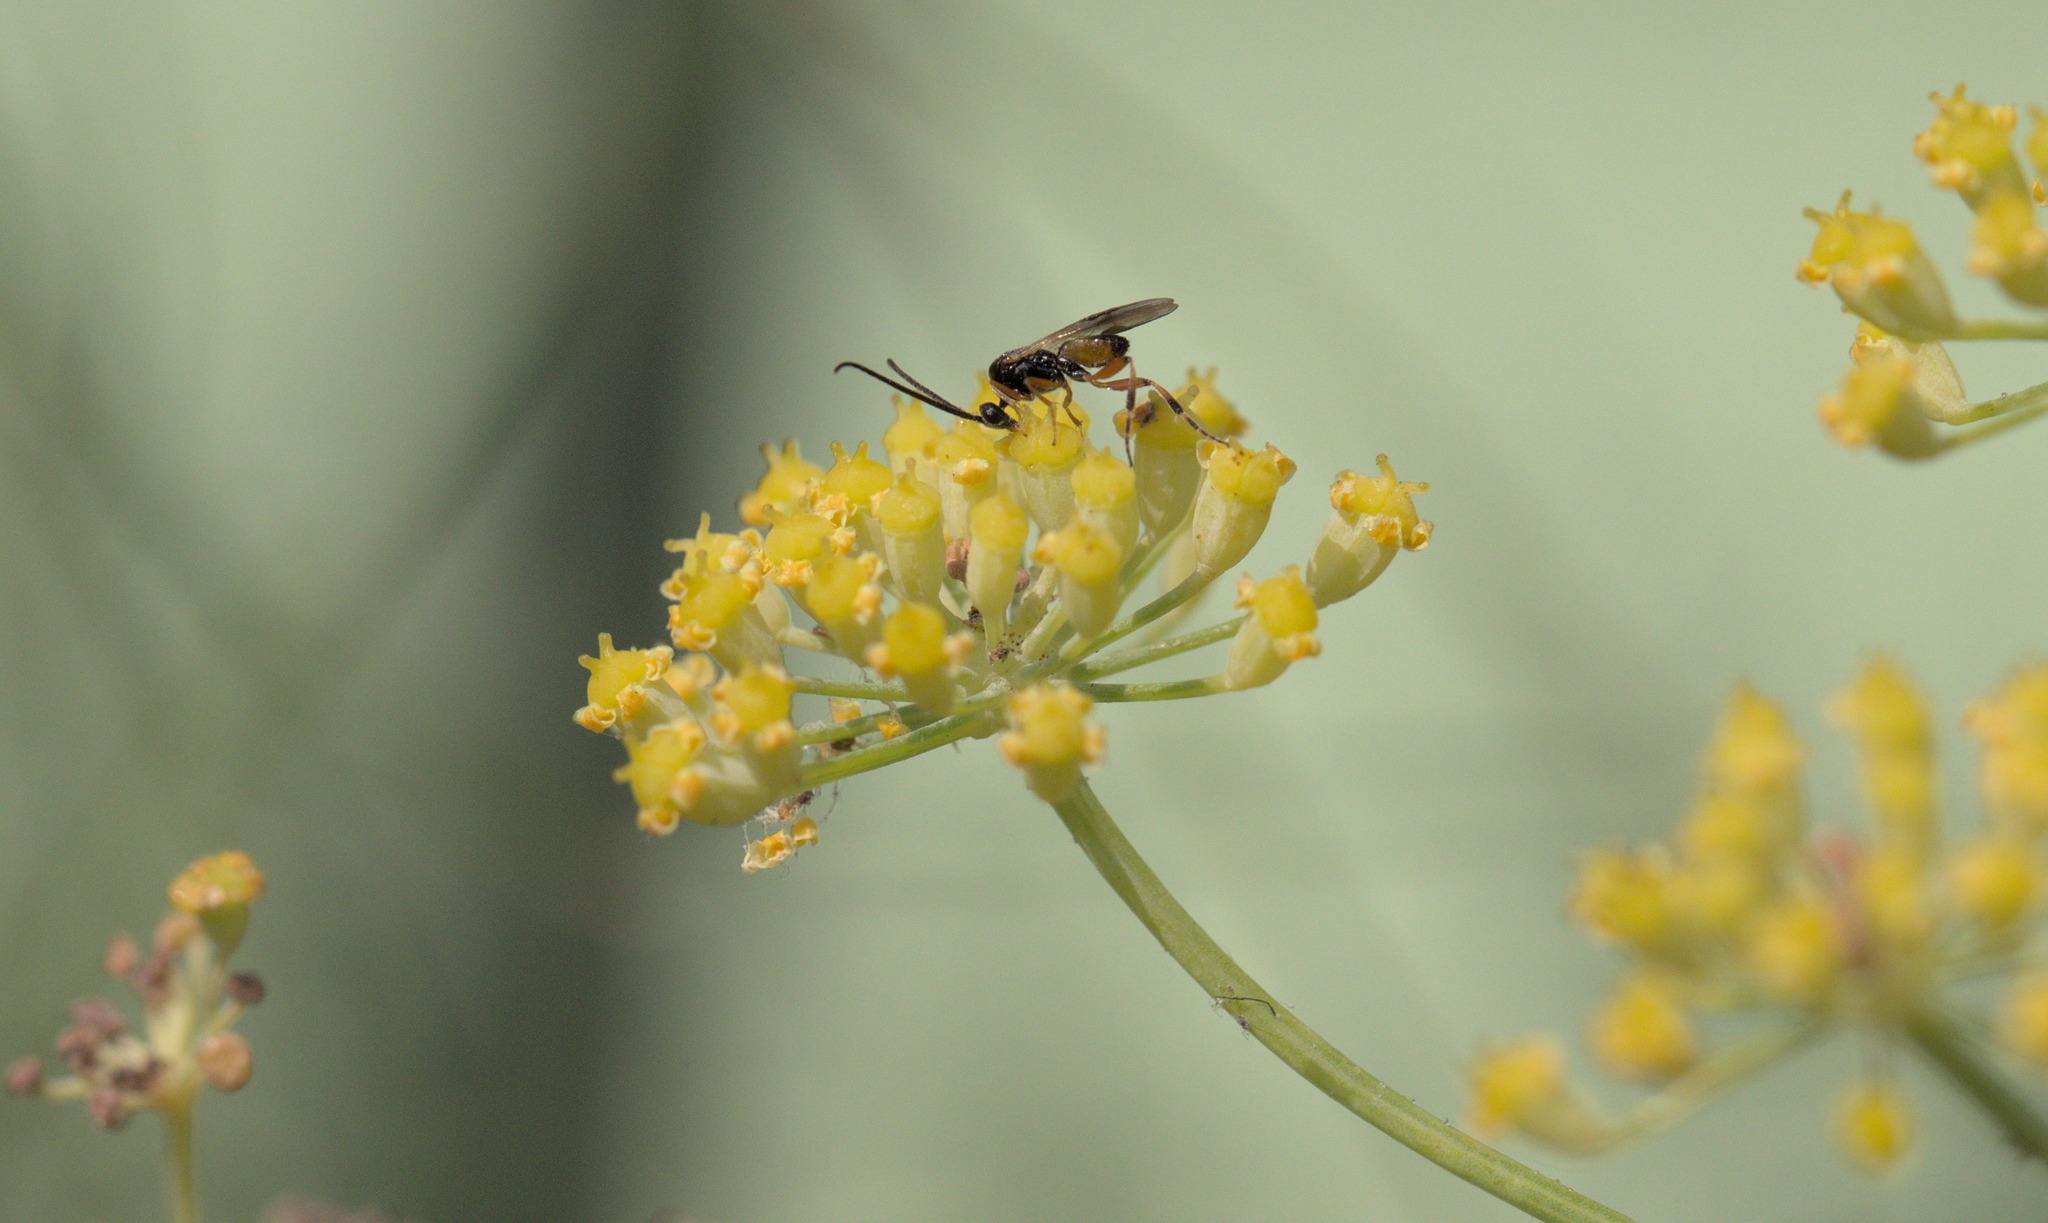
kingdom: Animalia
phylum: Arthropoda
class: Insecta
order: Hymenoptera
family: Eumenidae
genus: Polistes
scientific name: Polistes dominula
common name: Paper wasp
